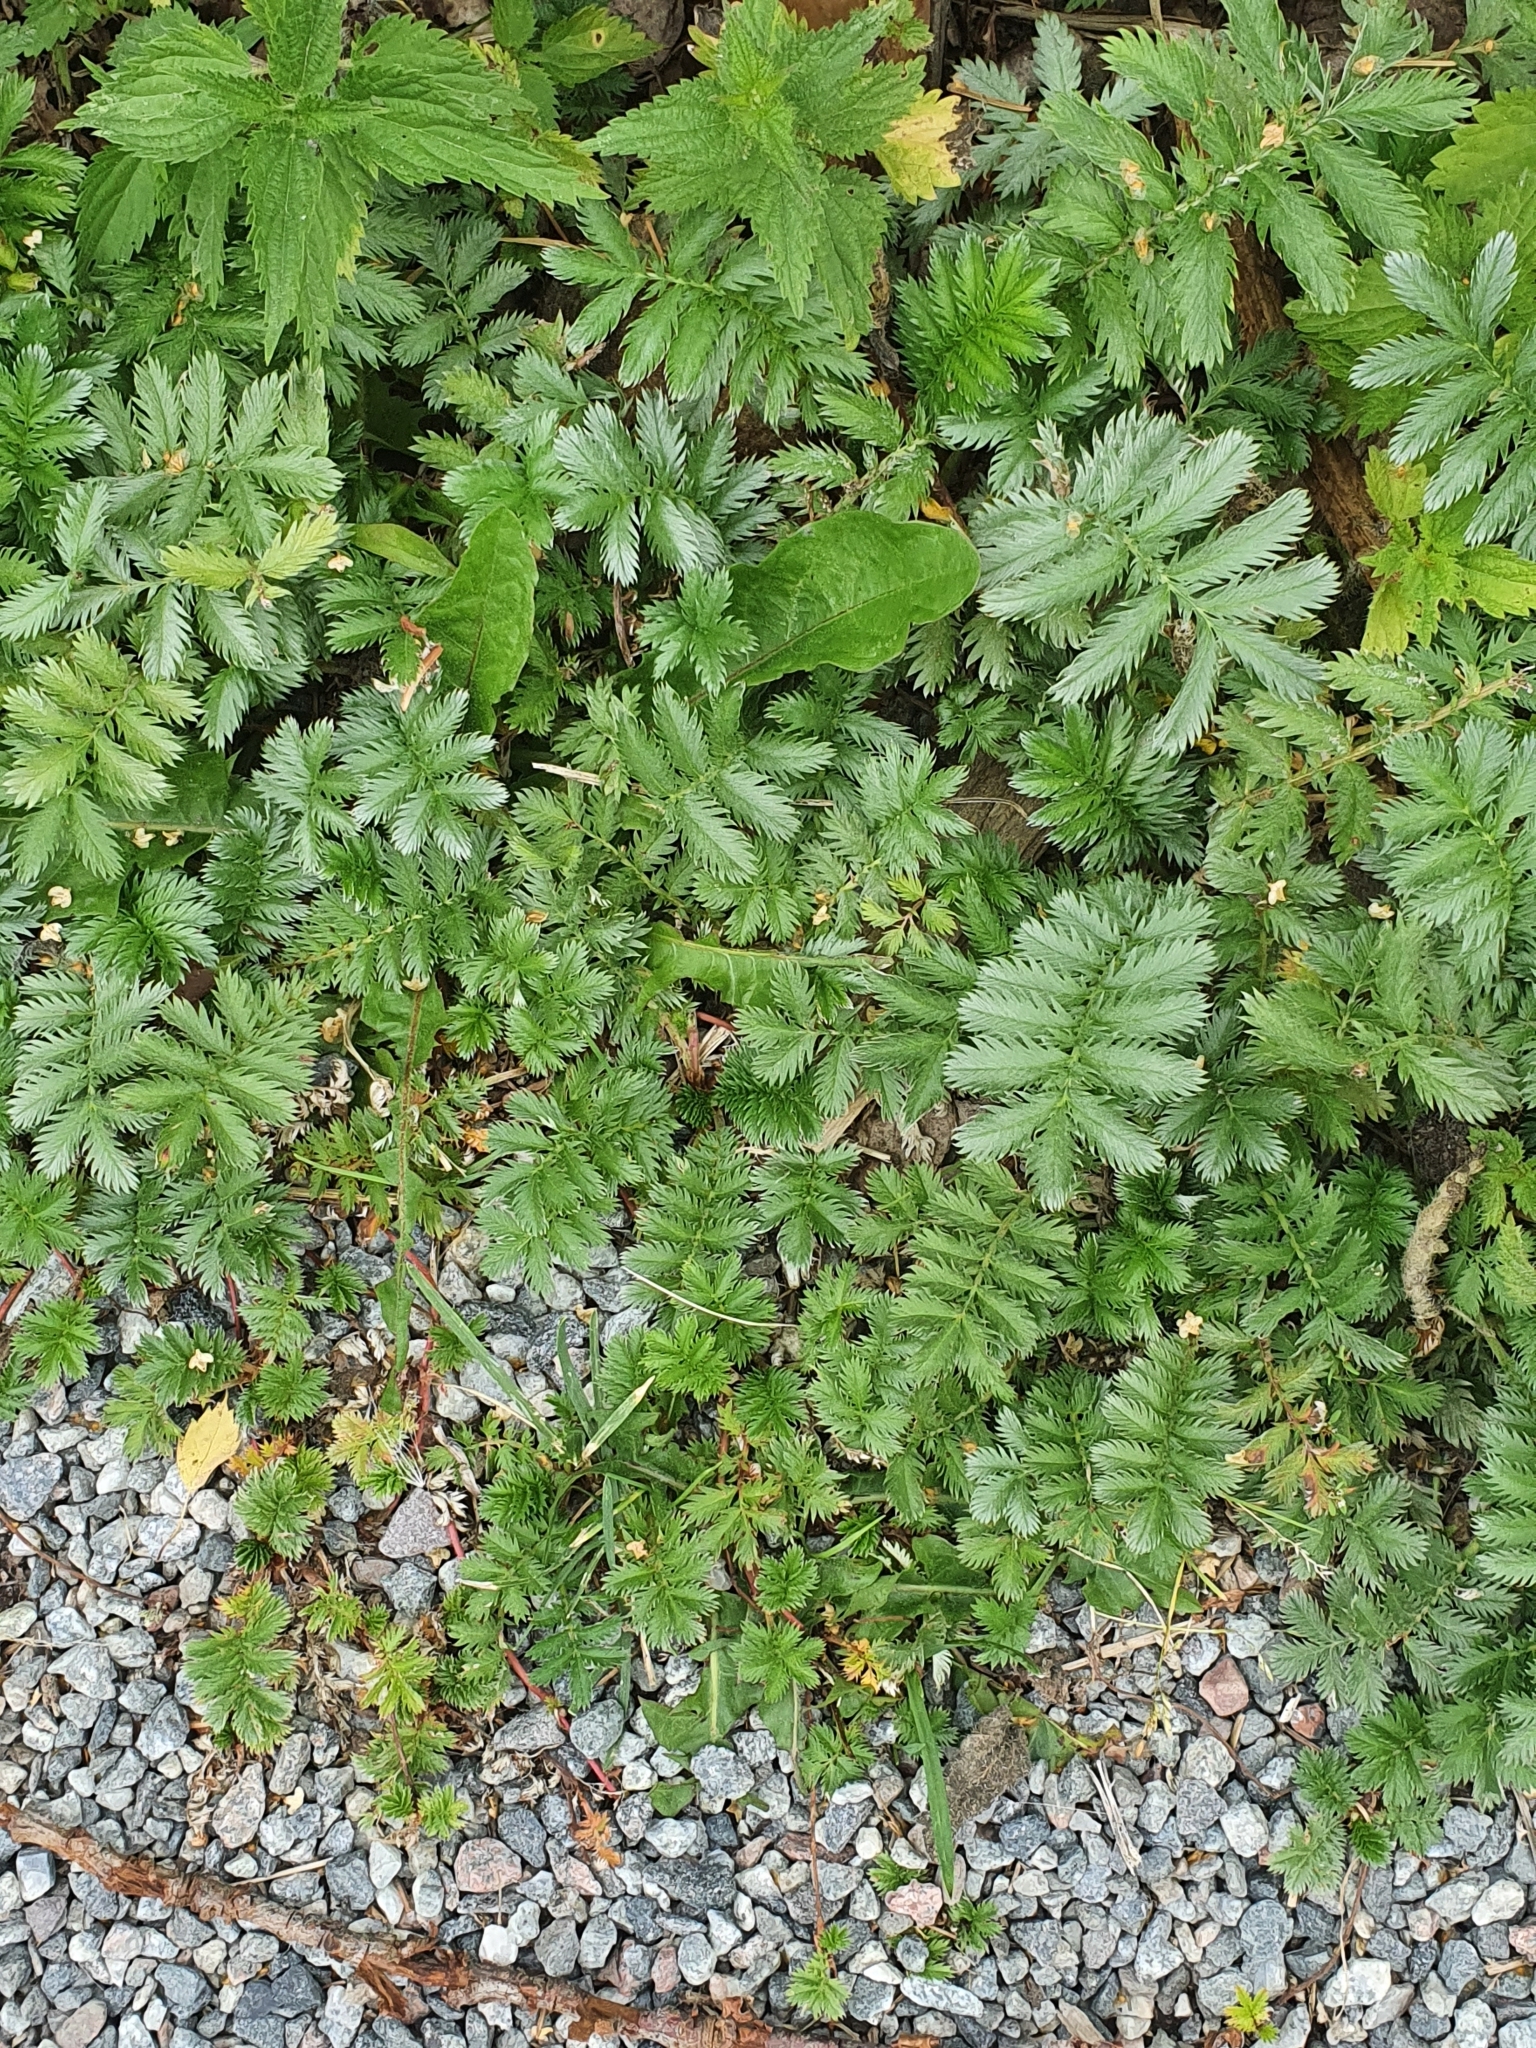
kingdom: Plantae
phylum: Tracheophyta
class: Magnoliopsida
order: Rosales
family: Rosaceae
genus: Argentina
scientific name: Argentina anserina
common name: Common silverweed
